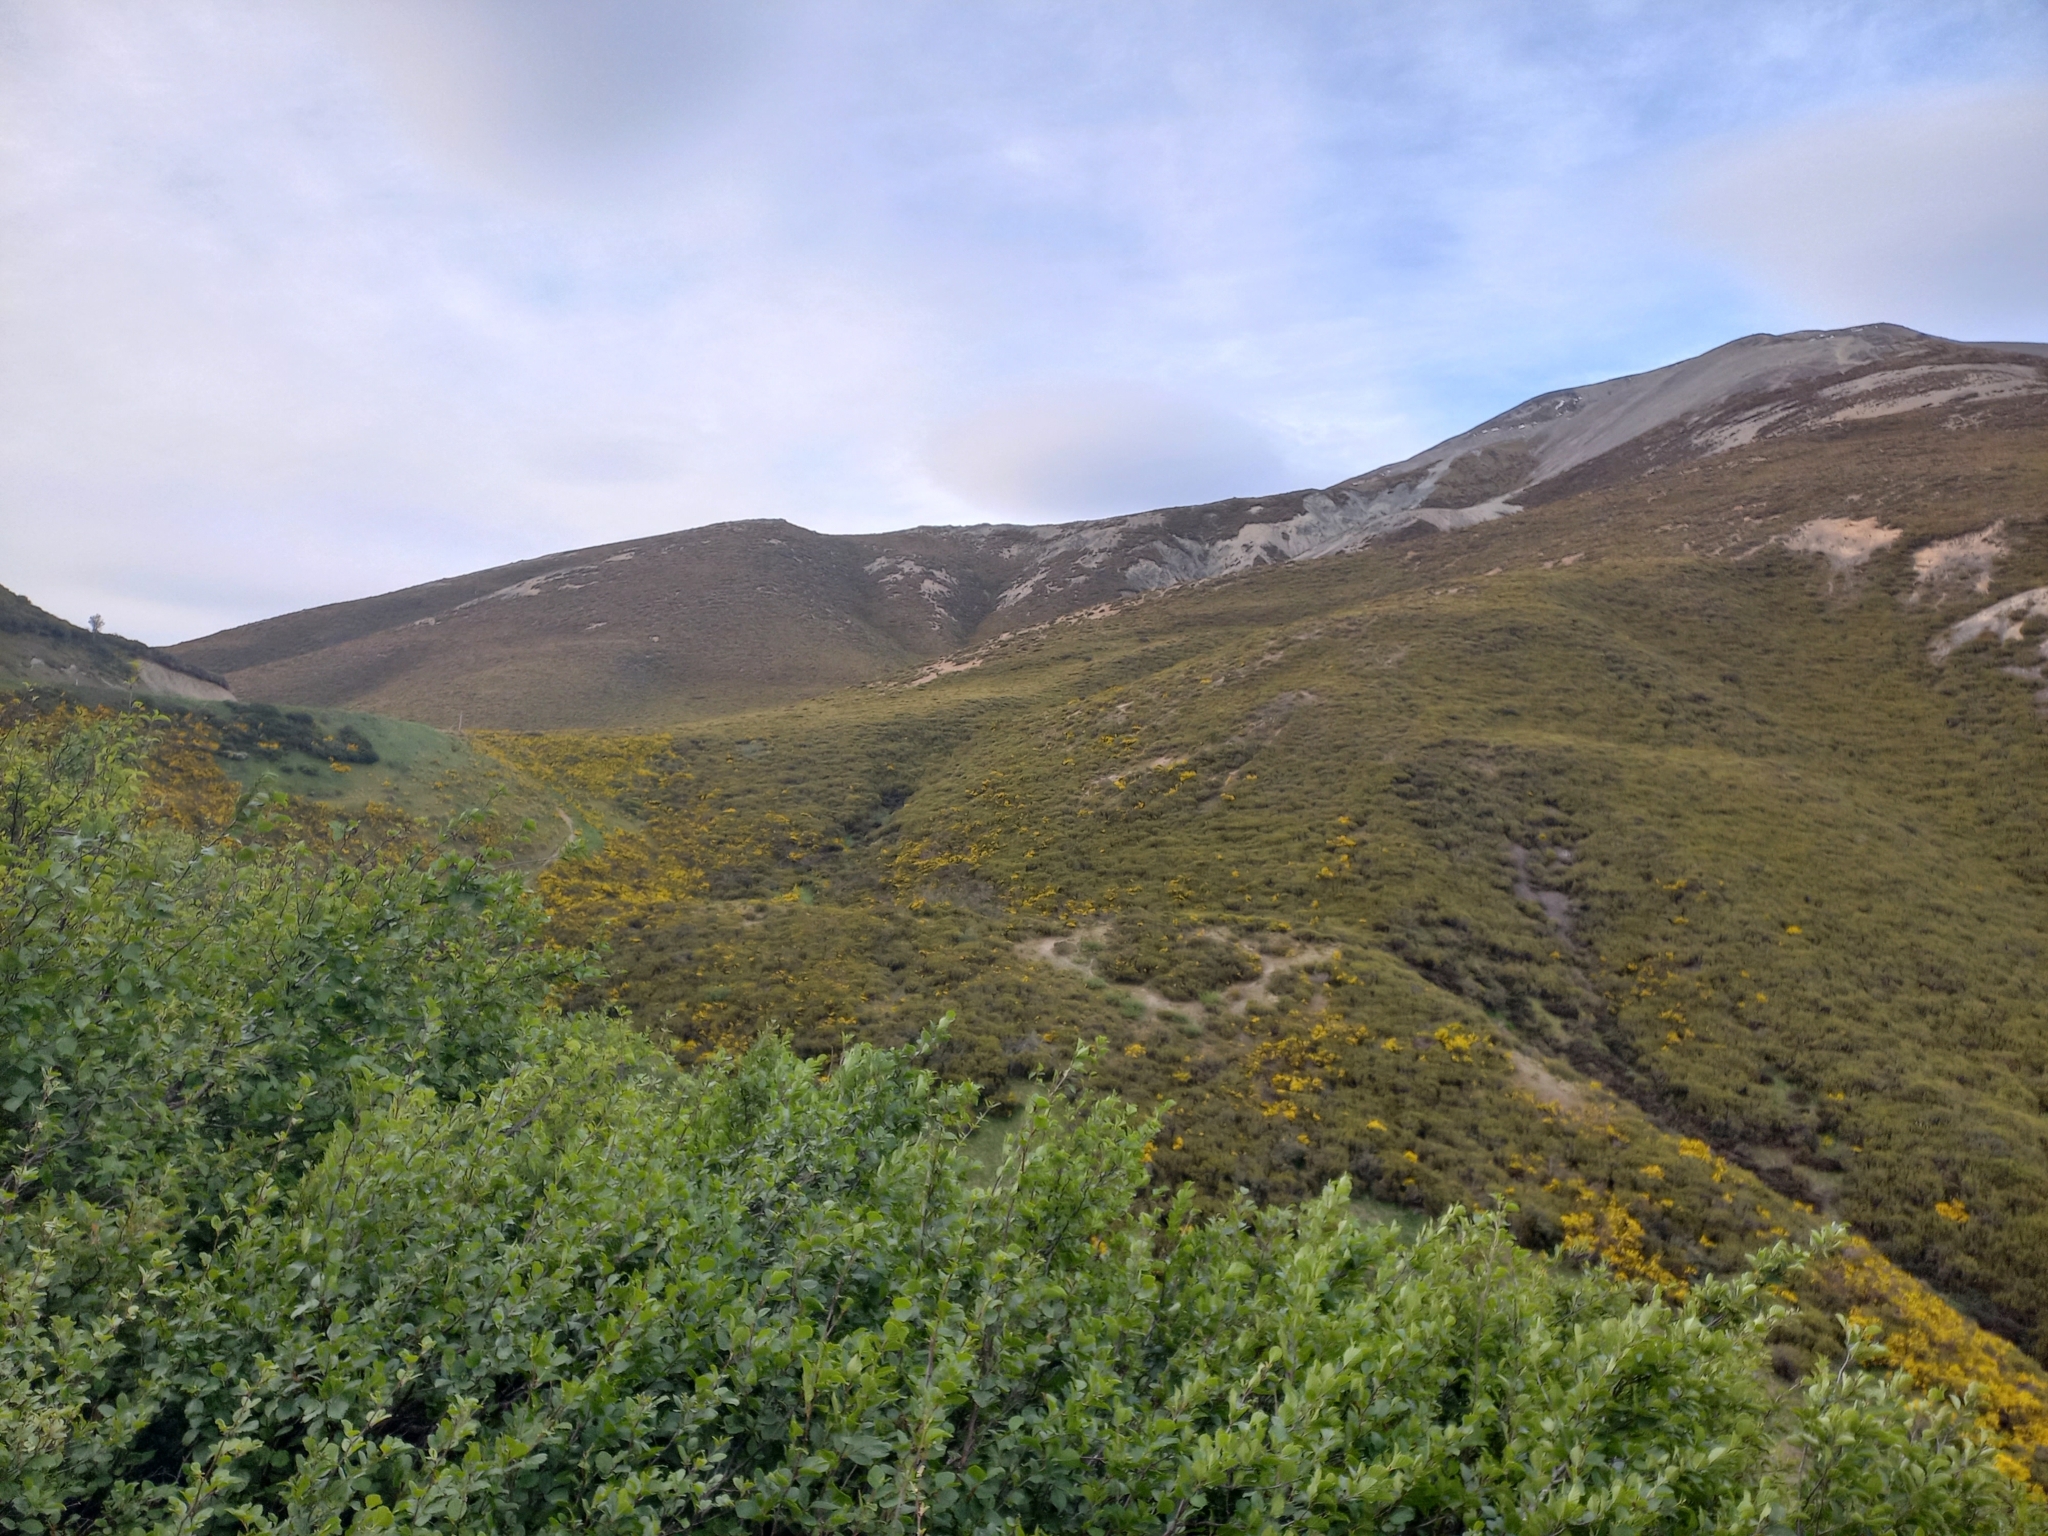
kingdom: Plantae
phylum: Tracheophyta
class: Magnoliopsida
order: Fabales
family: Fabaceae
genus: Cytisus
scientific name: Cytisus scoparius
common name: Scotch broom
